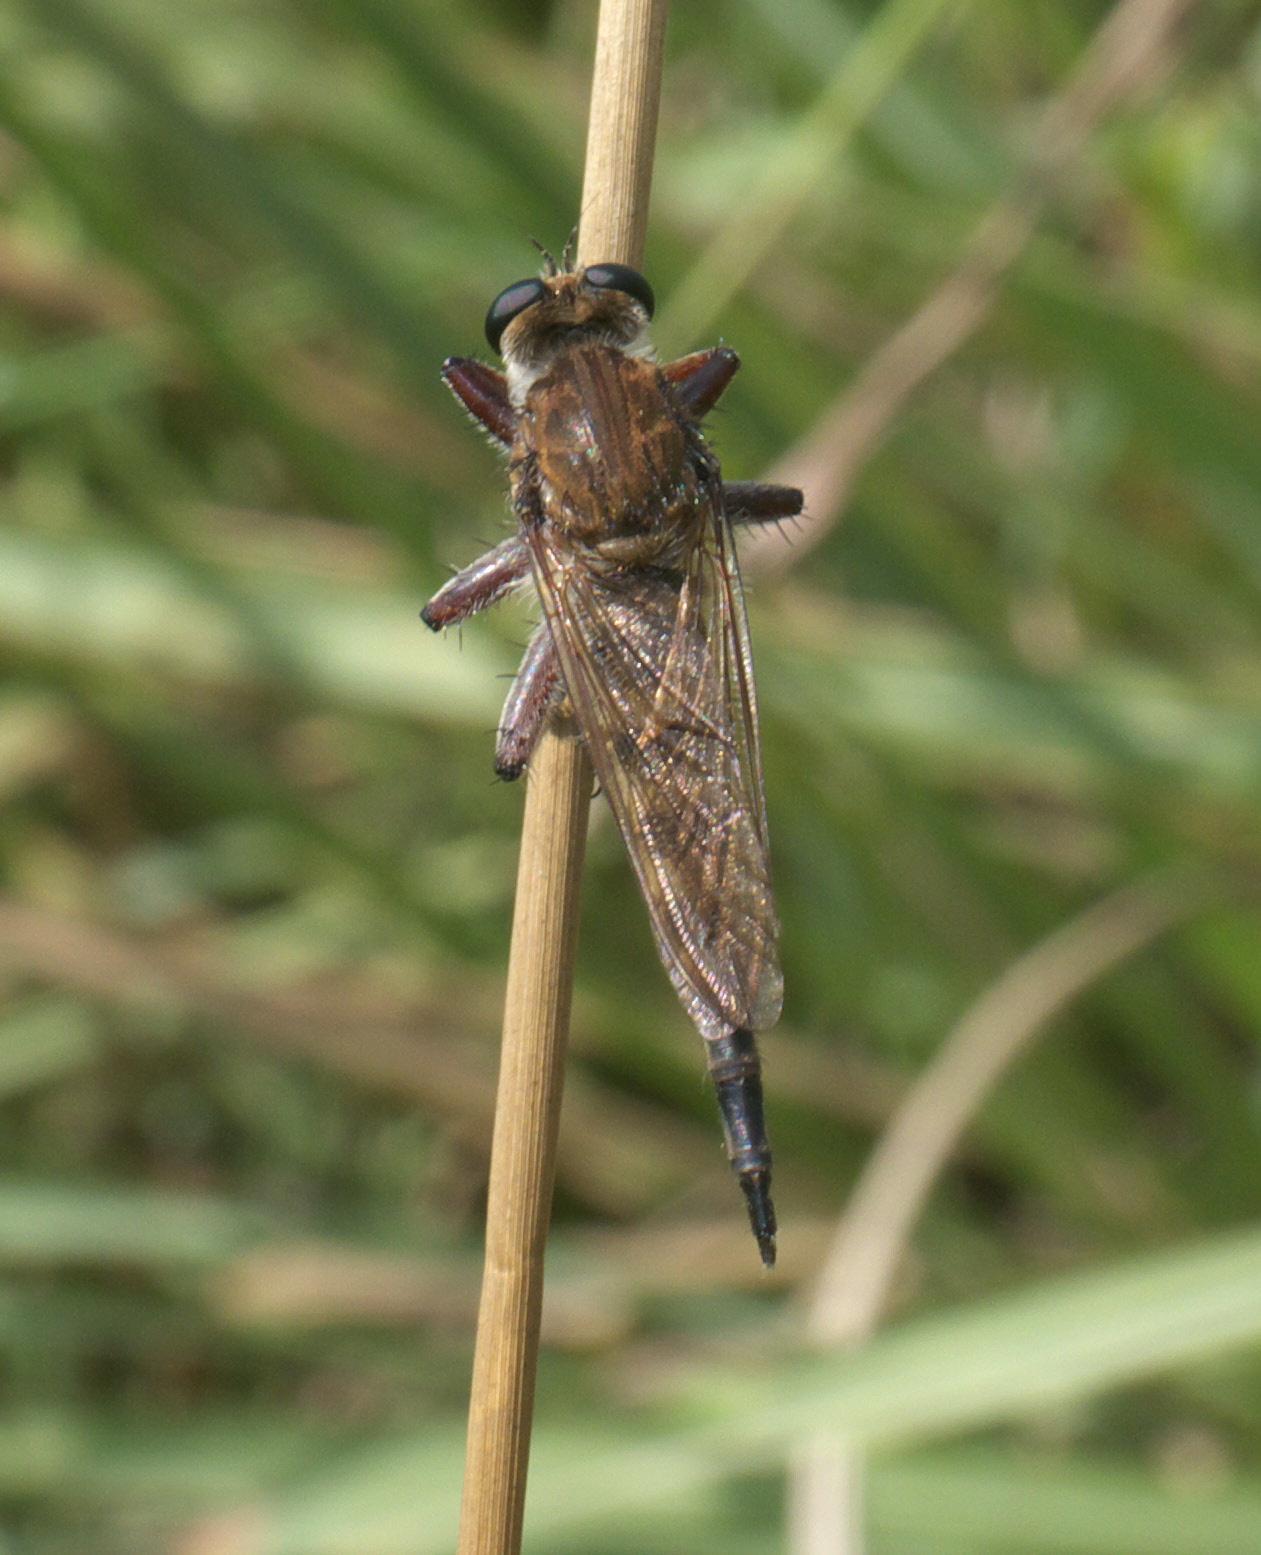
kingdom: Animalia
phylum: Arthropoda
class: Insecta
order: Diptera
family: Asilidae
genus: Promachus
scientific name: Promachus hinei
